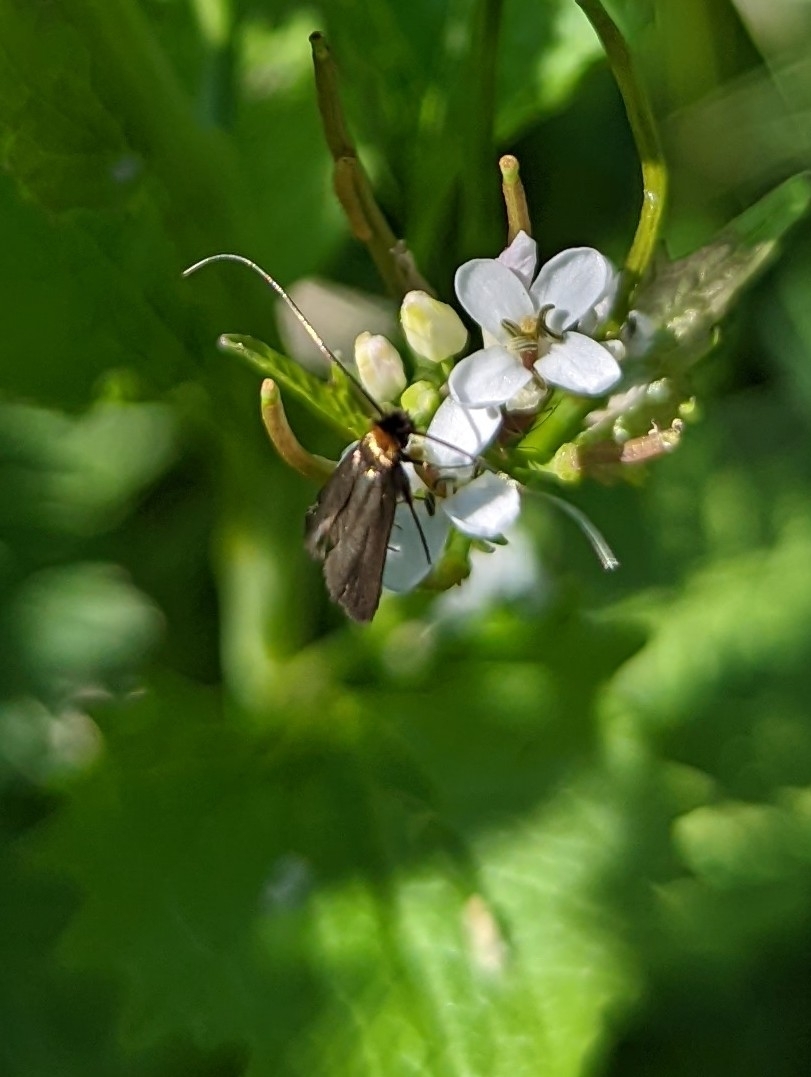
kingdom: Animalia
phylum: Arthropoda
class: Insecta
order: Lepidoptera
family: Adelidae
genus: Cauchas
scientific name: Cauchas rufimitrella
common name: Meadow long-horn
